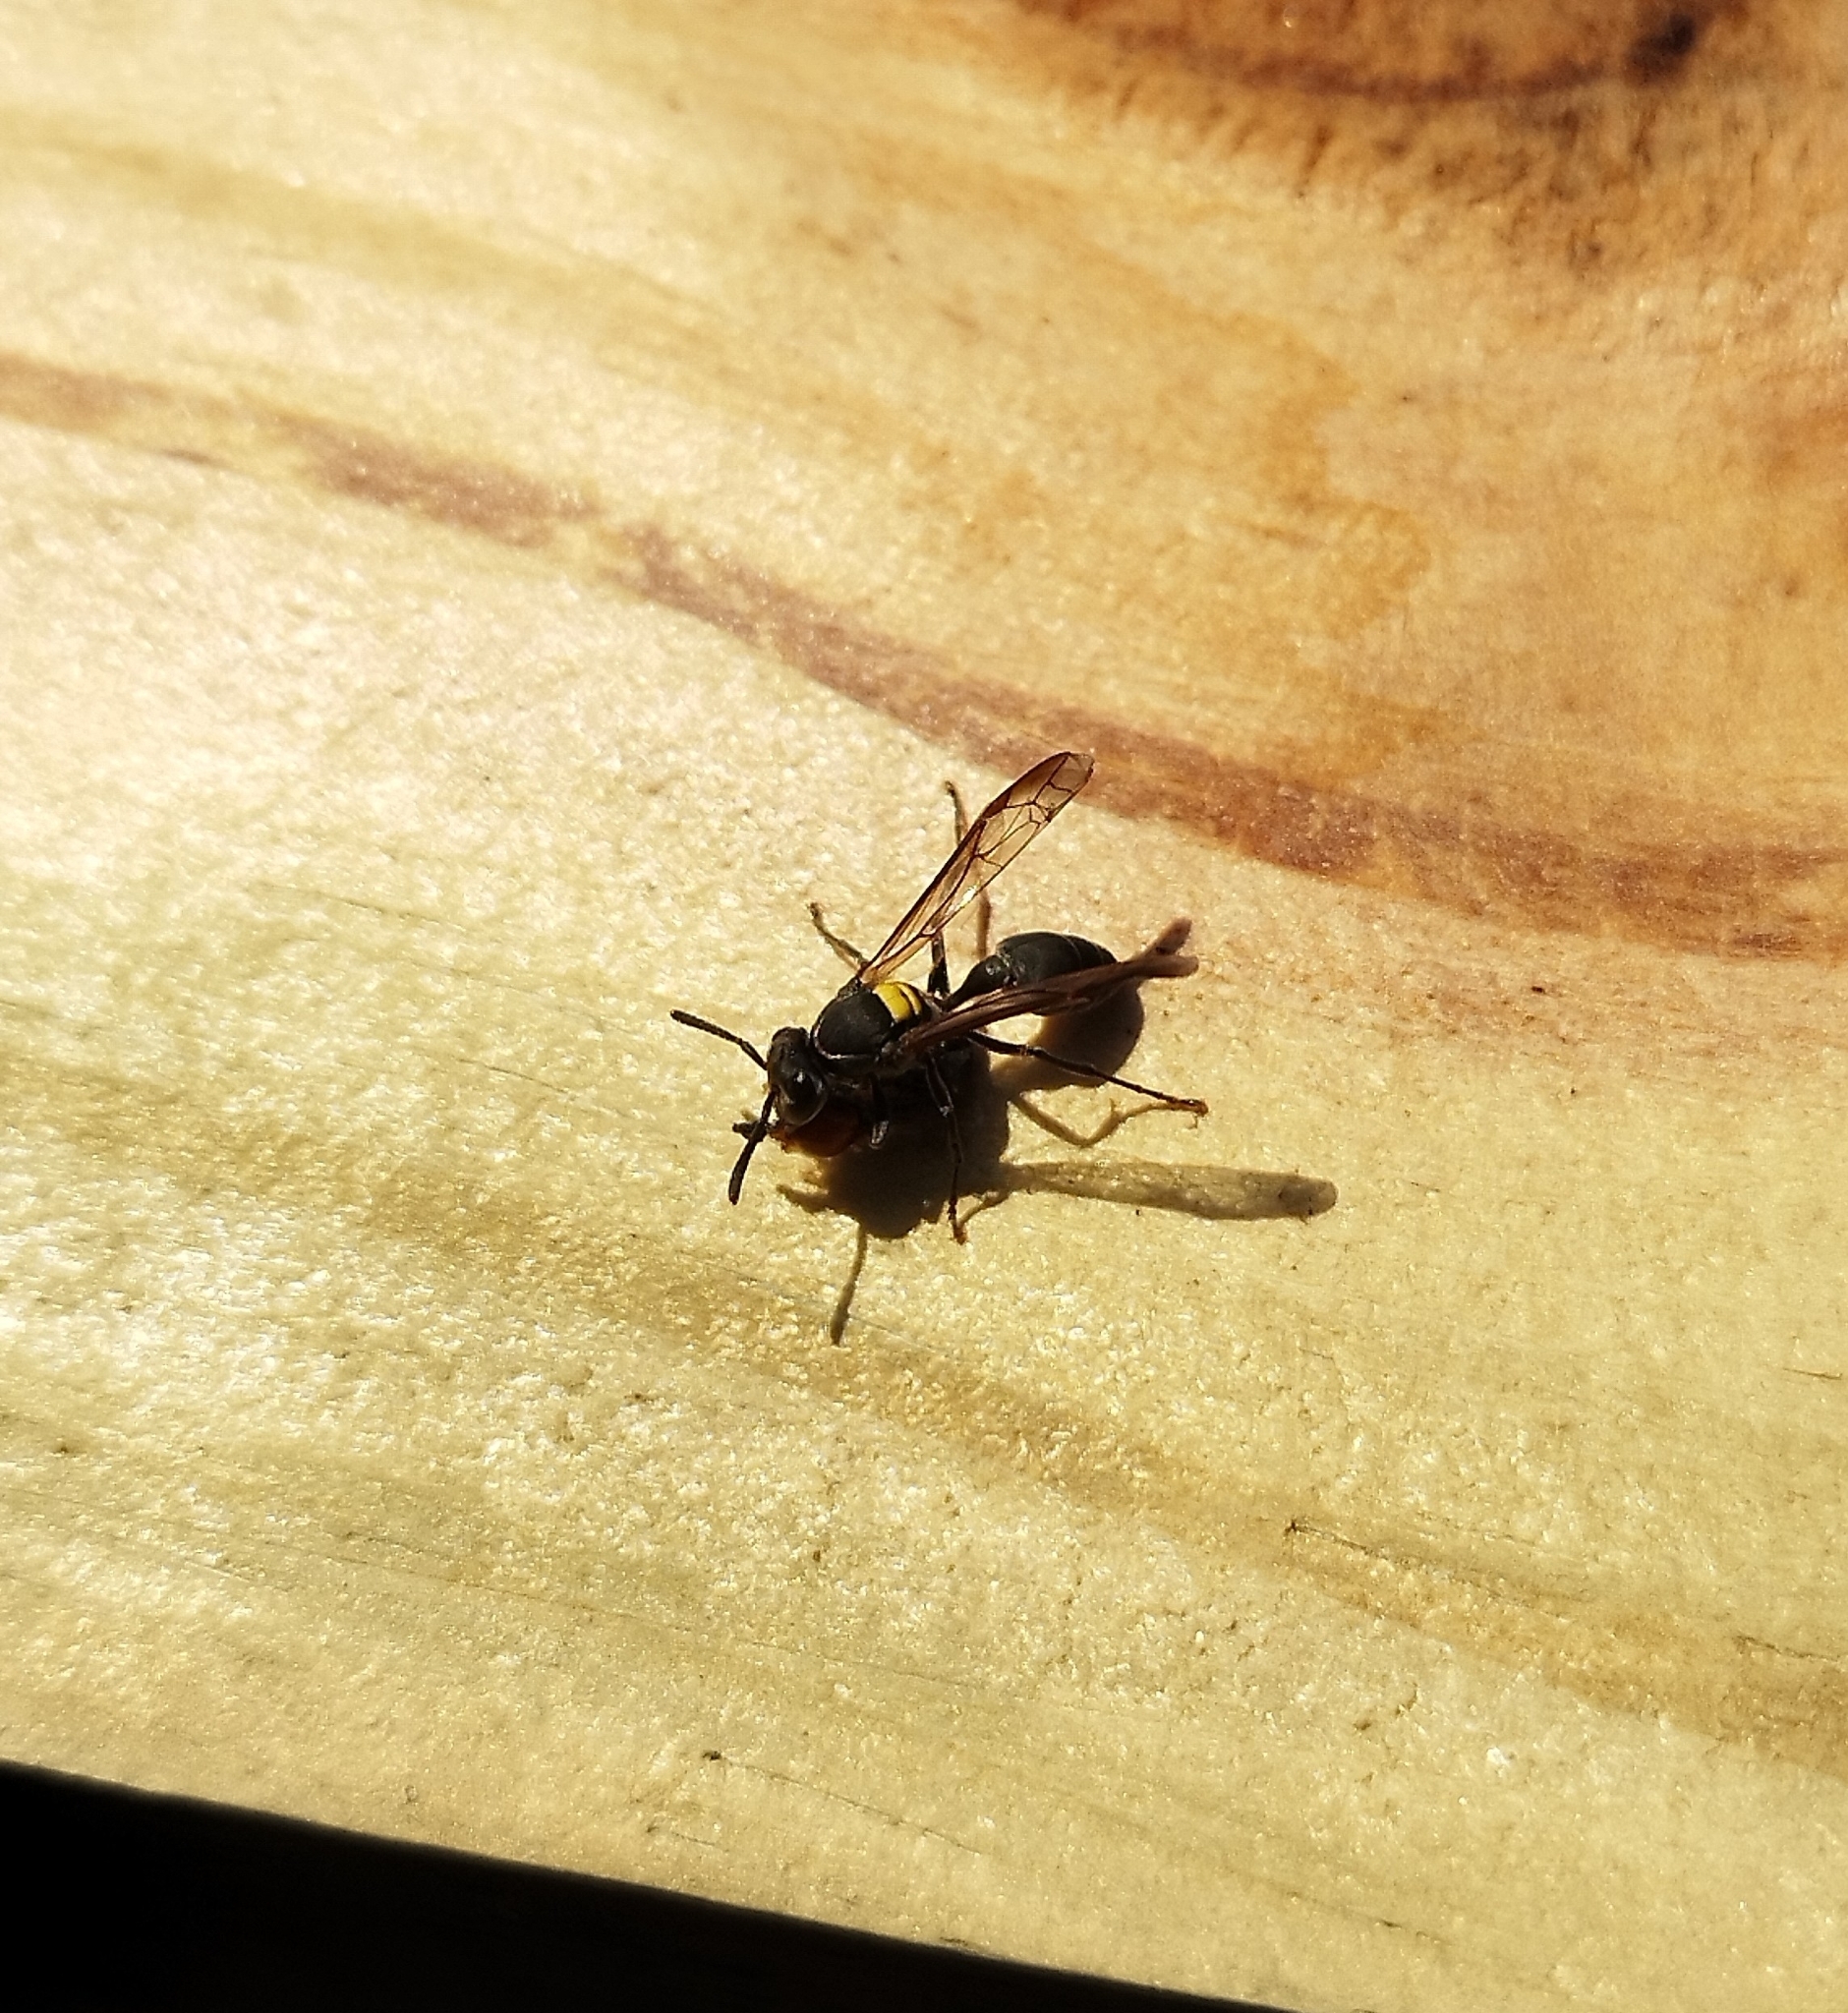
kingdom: Animalia
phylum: Arthropoda
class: Insecta
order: Hymenoptera
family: Eumenidae
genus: Polybia
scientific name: Polybia scutellaris
